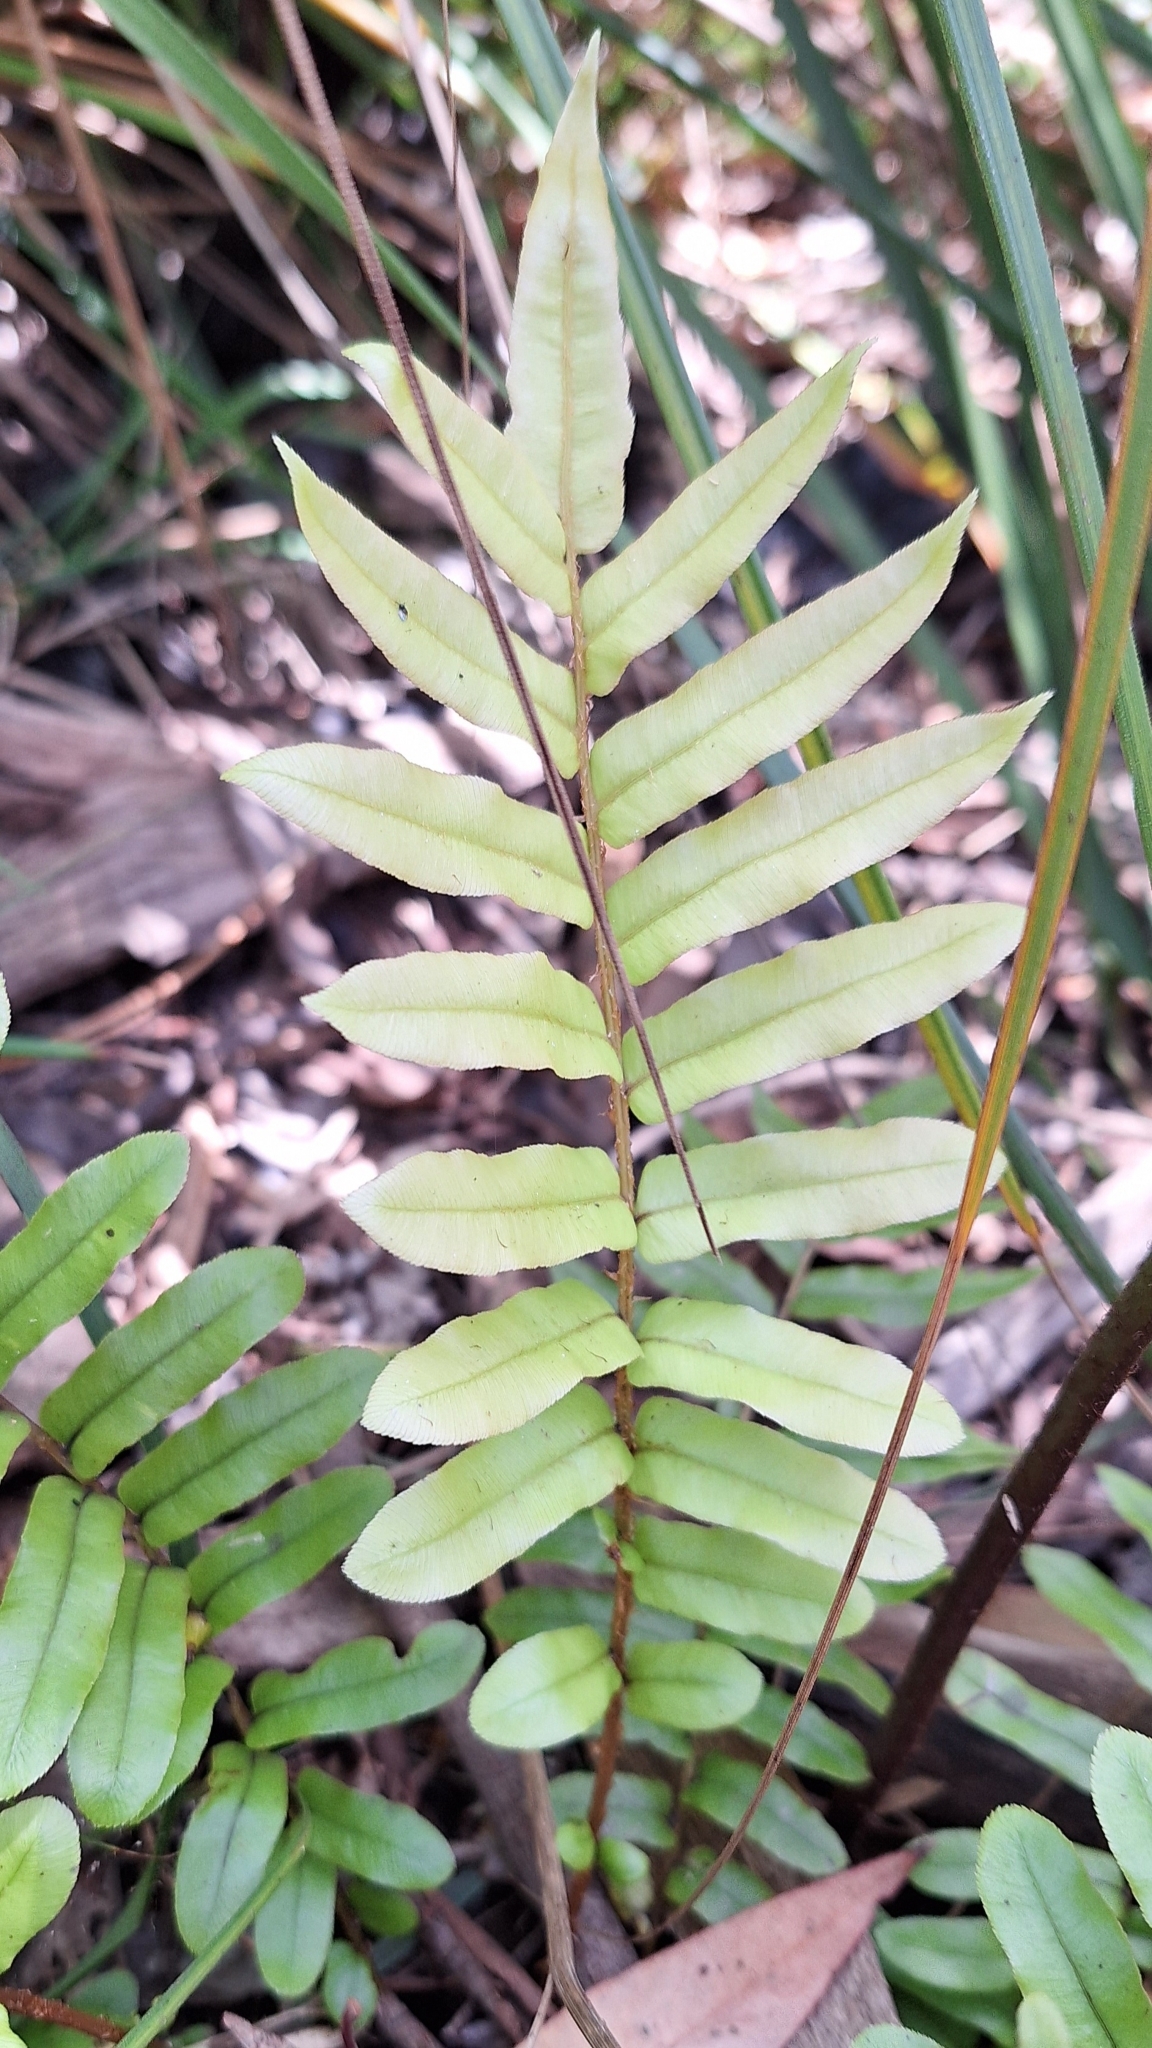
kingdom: Plantae
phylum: Tracheophyta
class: Polypodiopsida
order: Polypodiales
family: Blechnaceae
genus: Parablechnum
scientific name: Parablechnum wattsii
